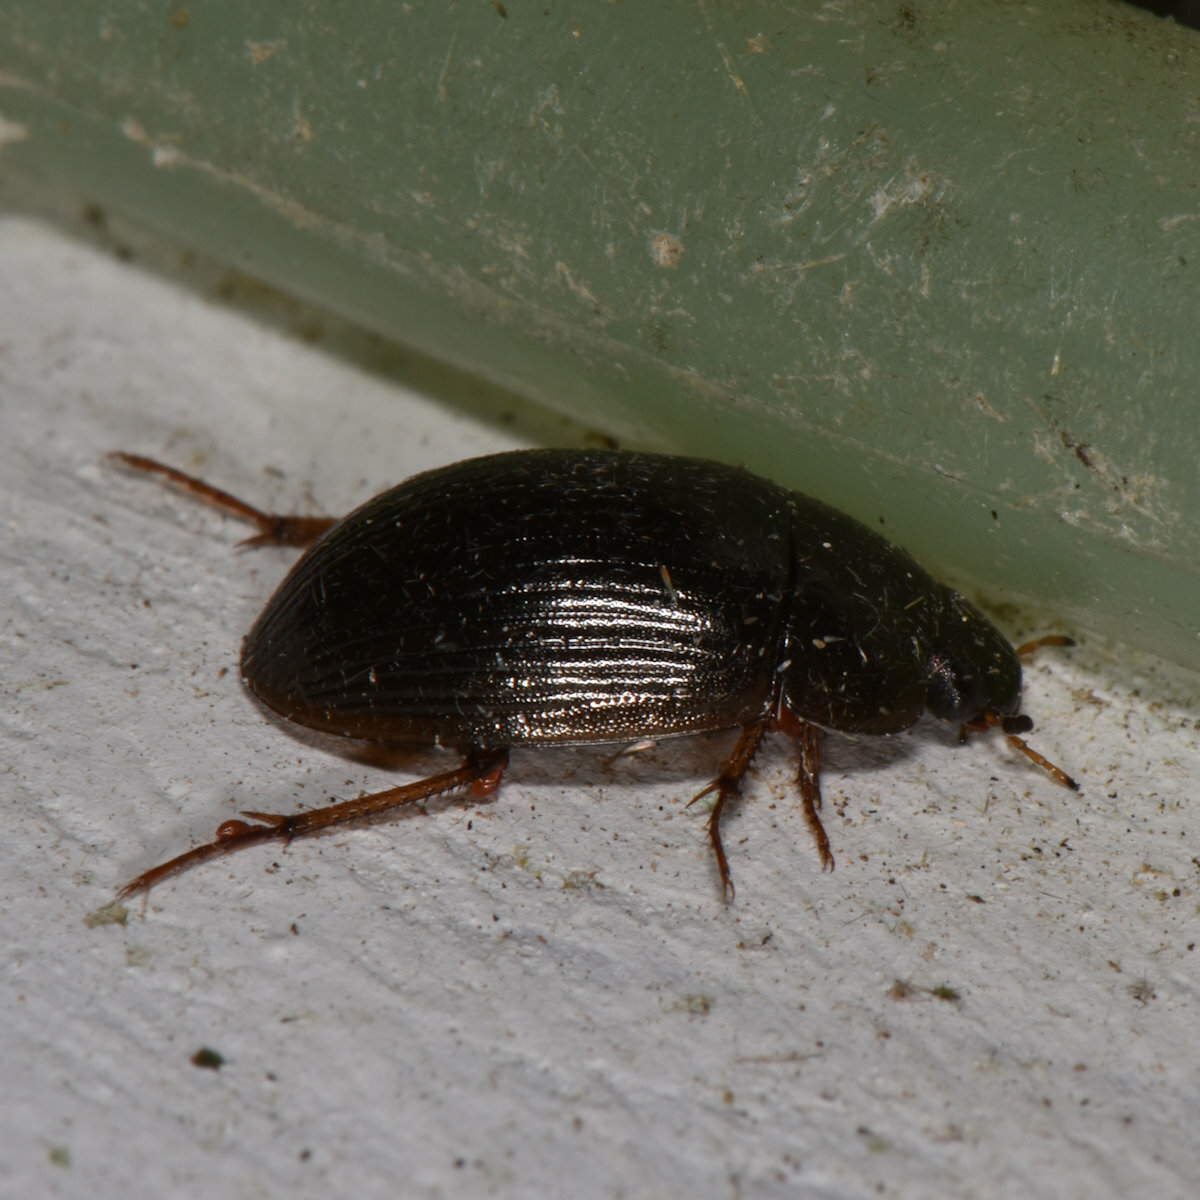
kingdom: Animalia
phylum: Arthropoda
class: Insecta
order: Coleoptera
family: Hydrophilidae
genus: Hydrobius
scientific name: Hydrobius fuscipes
